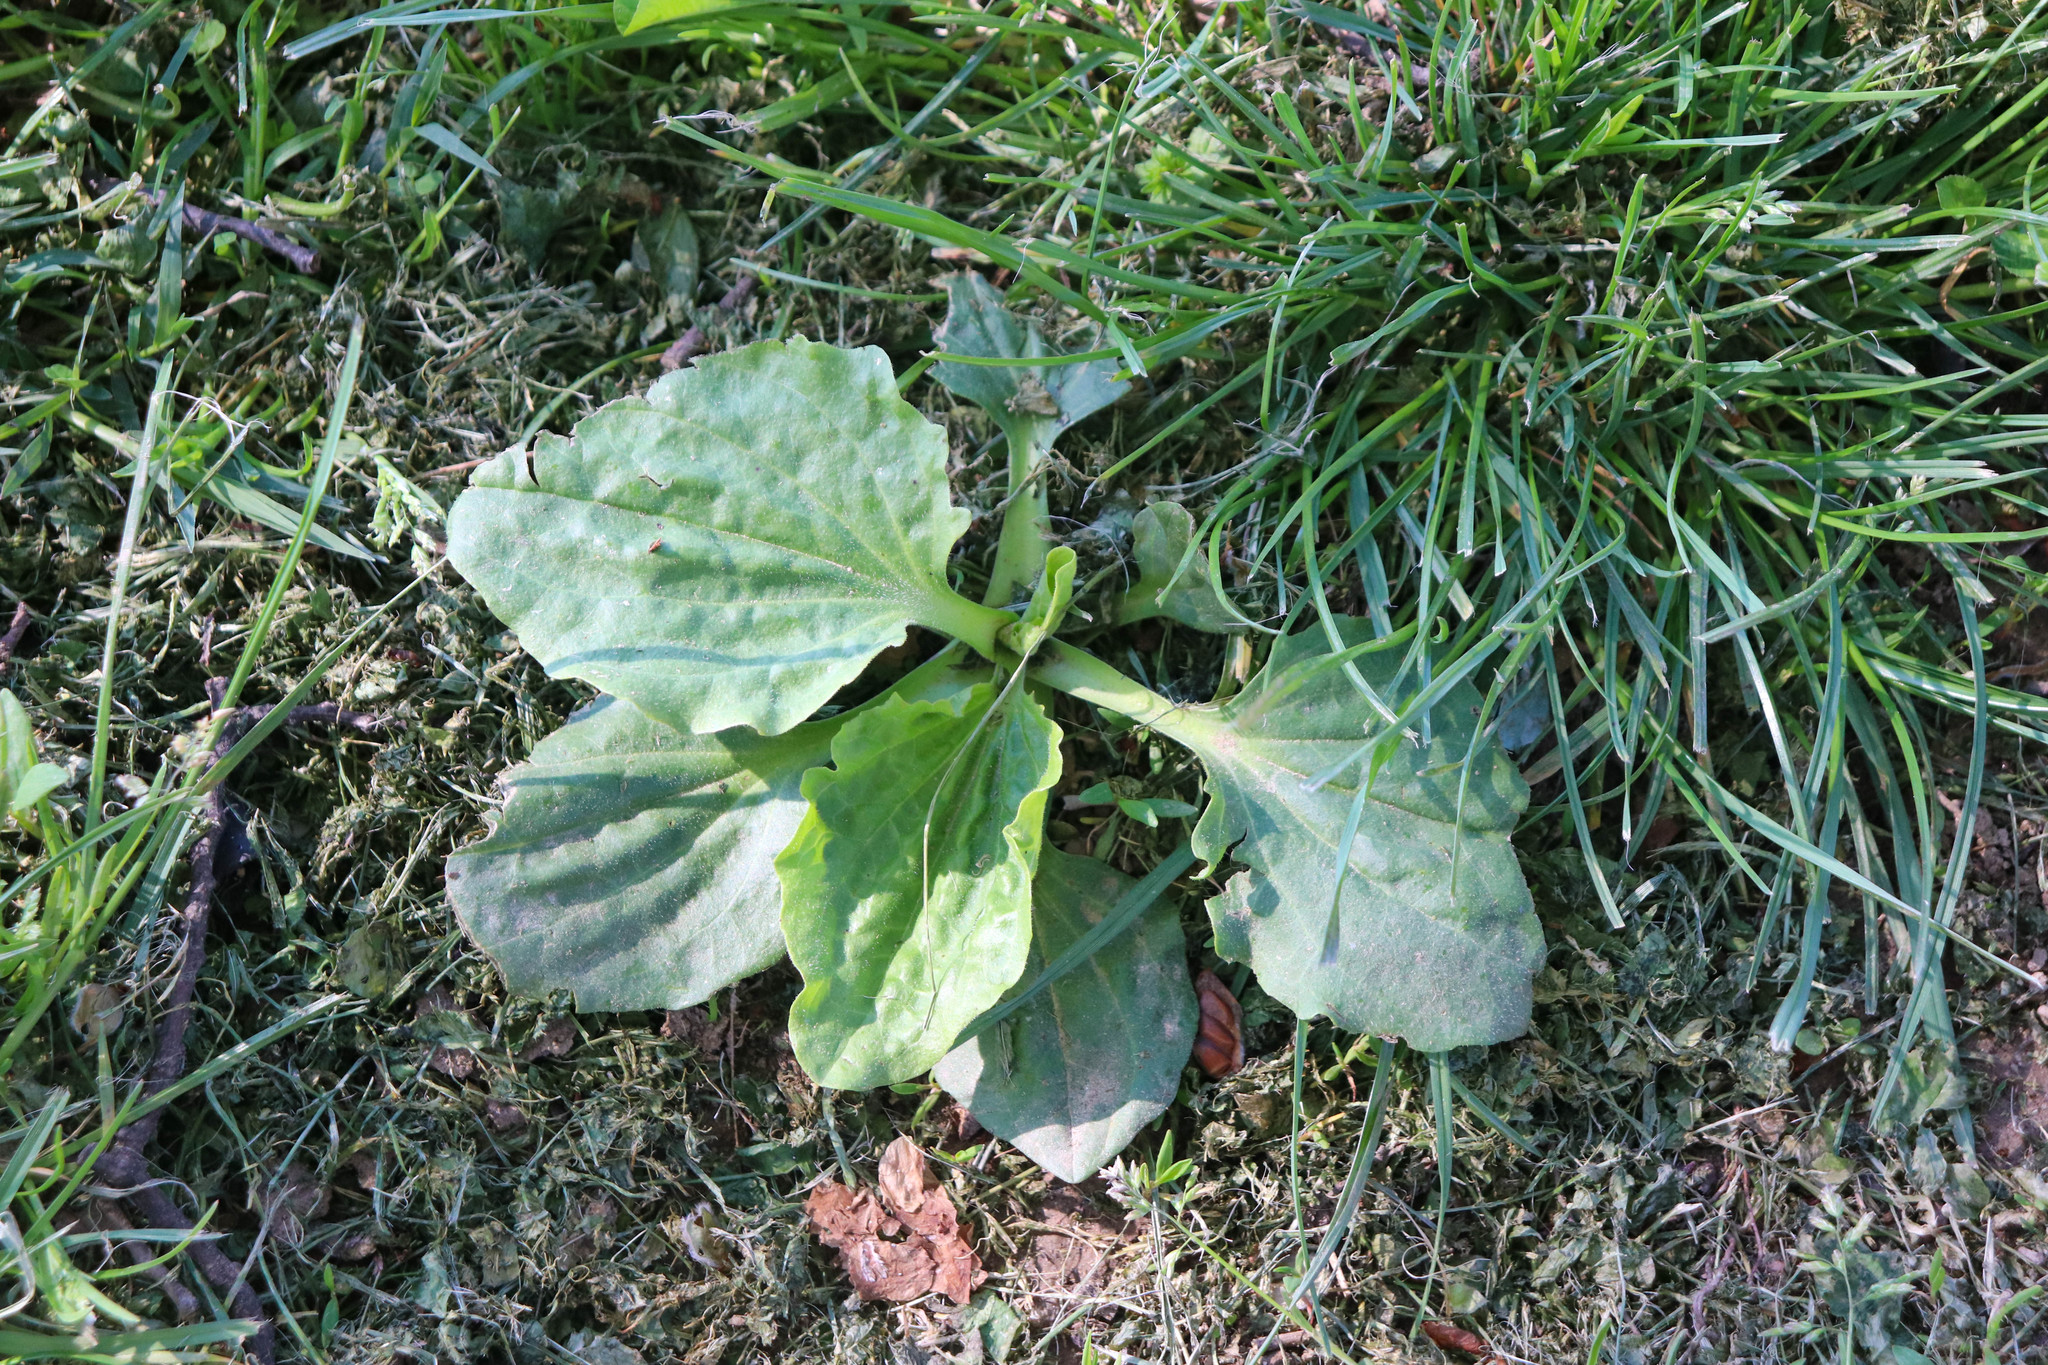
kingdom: Plantae
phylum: Tracheophyta
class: Magnoliopsida
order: Lamiales
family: Plantaginaceae
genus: Plantago
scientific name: Plantago major
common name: Common plantain
